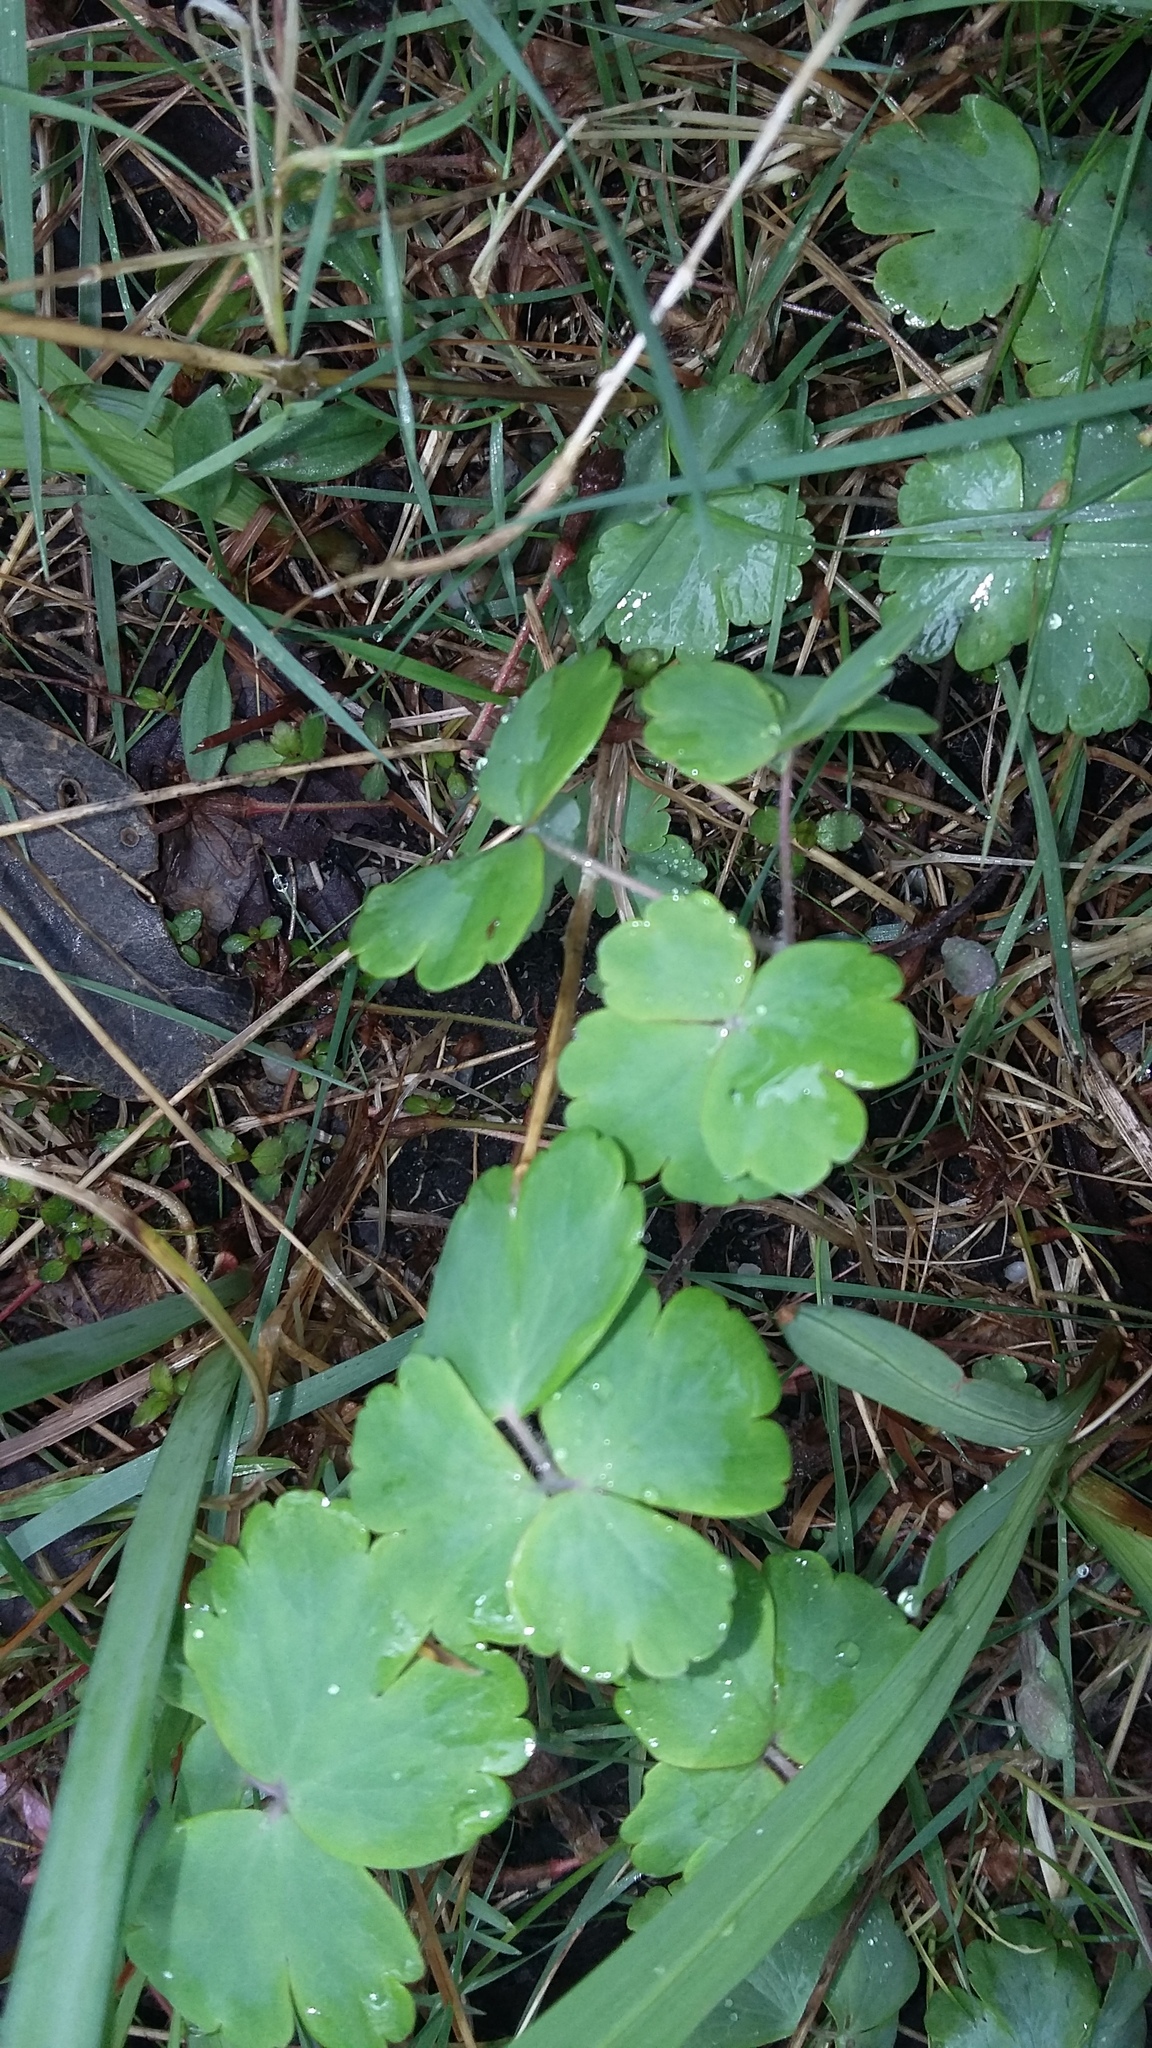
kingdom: Plantae
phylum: Tracheophyta
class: Magnoliopsida
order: Ranunculales
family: Ranunculaceae
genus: Aquilegia
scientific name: Aquilegia vulgaris
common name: Columbine
